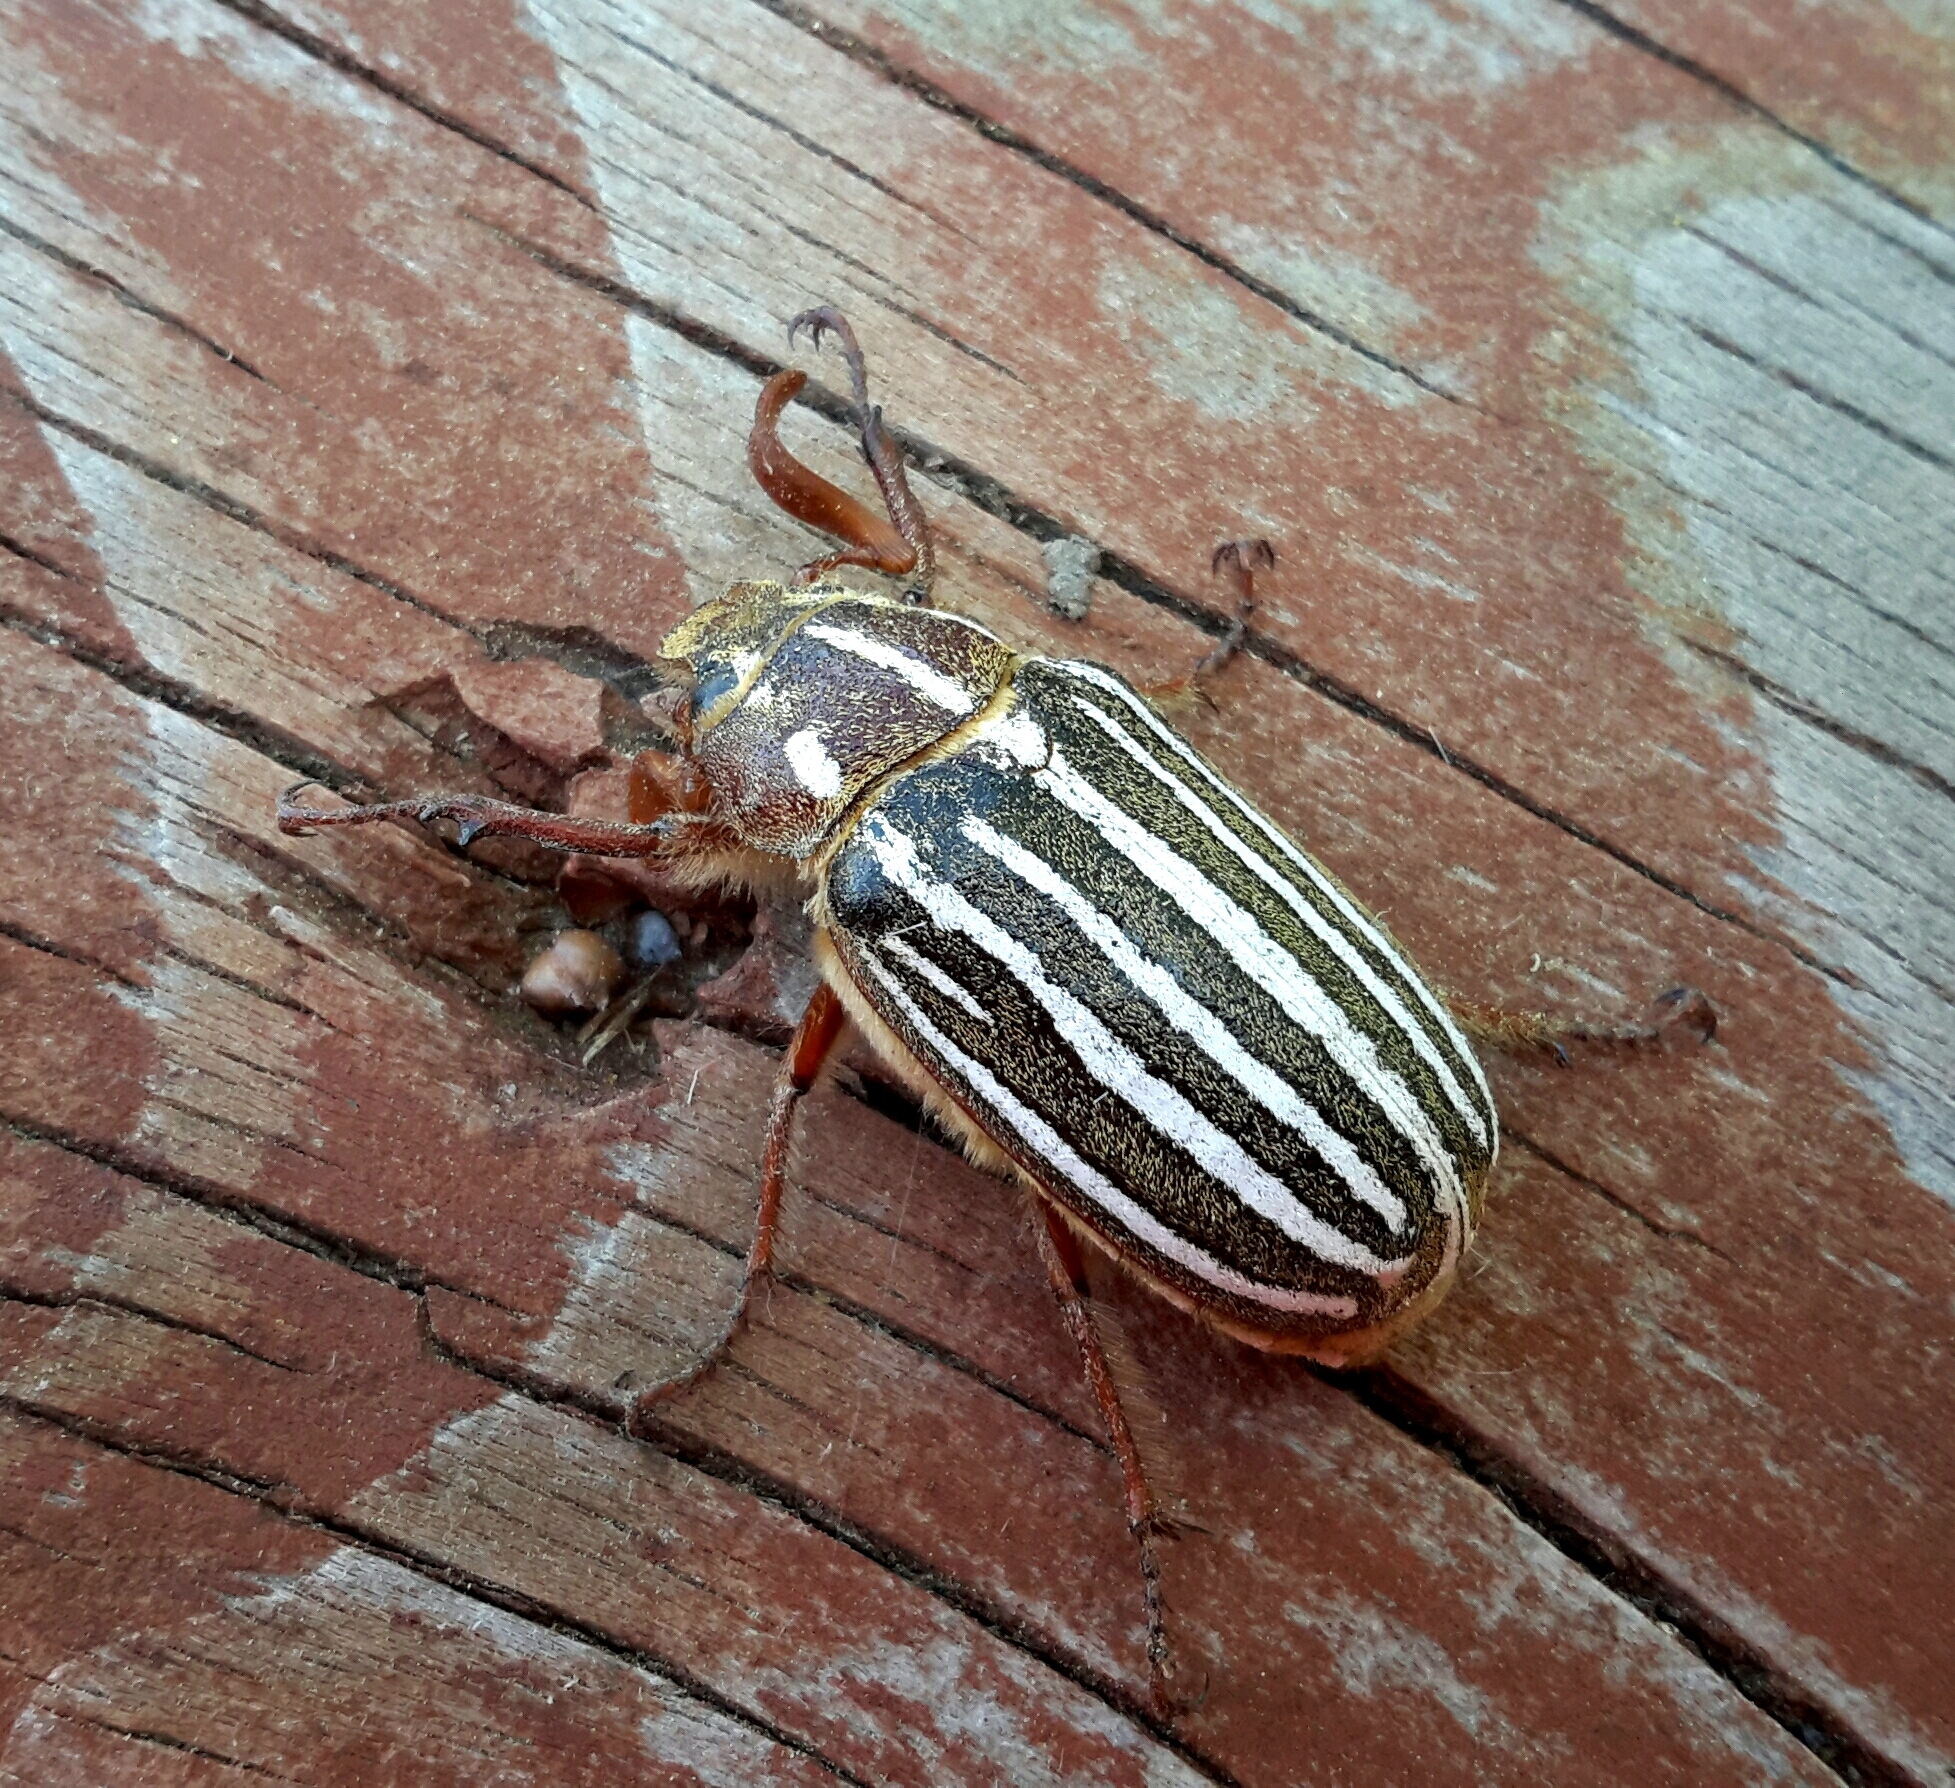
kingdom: Animalia
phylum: Arthropoda
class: Insecta
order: Coleoptera
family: Scarabaeidae
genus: Polyphylla
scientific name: Polyphylla decemlineata
